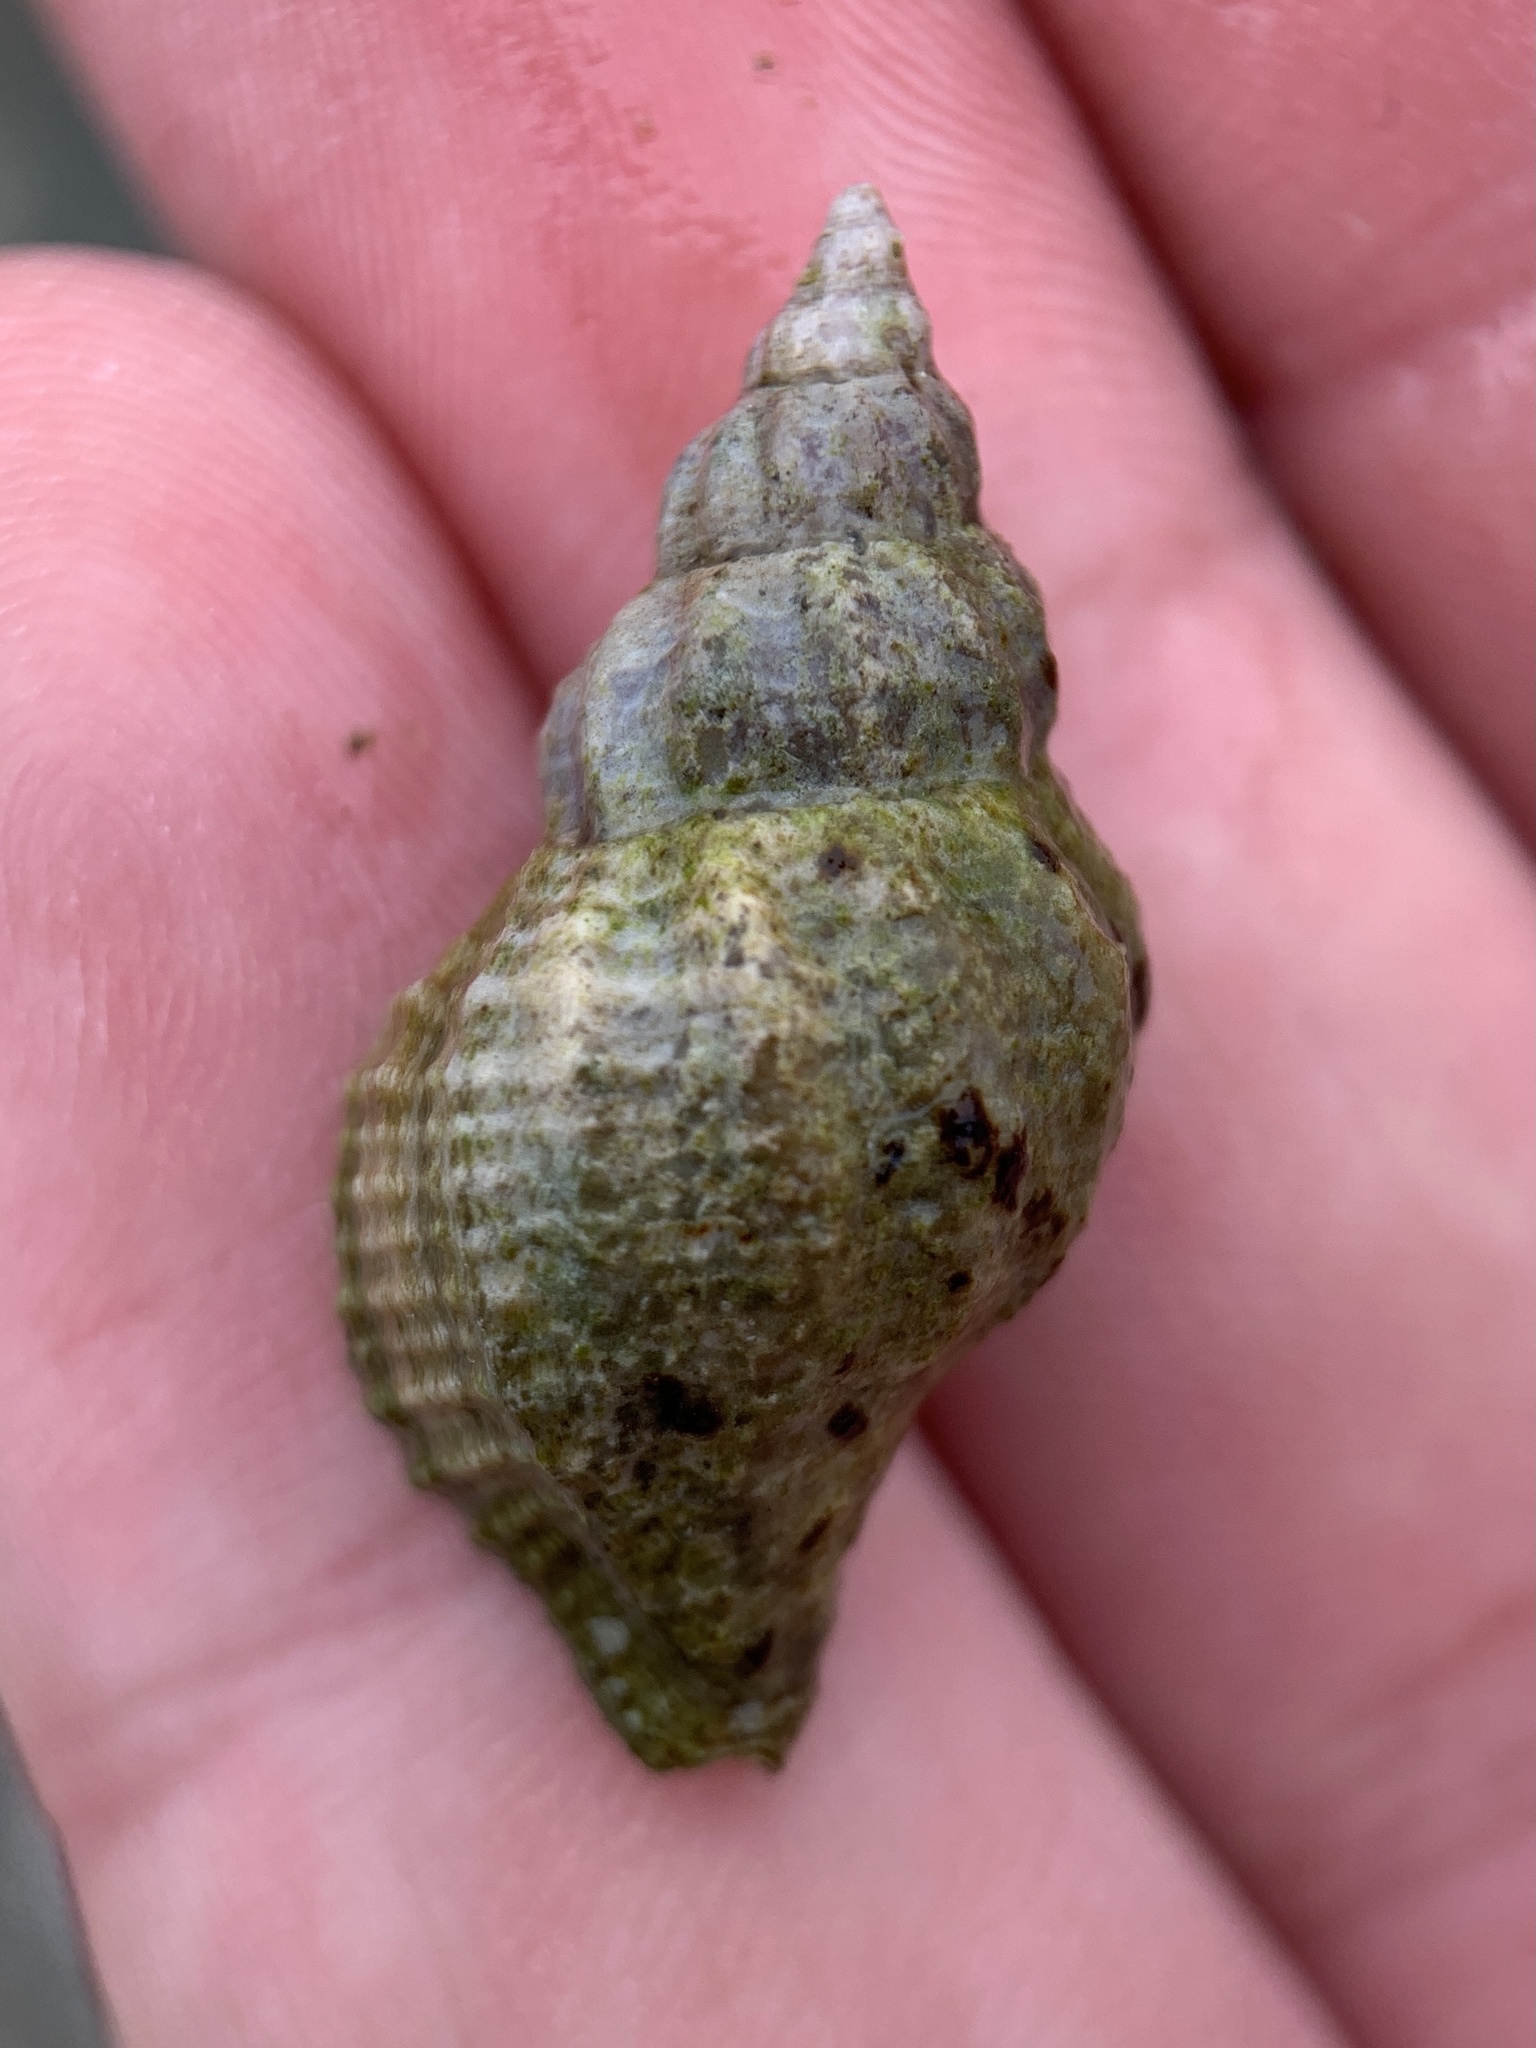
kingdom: Animalia
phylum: Mollusca
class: Gastropoda
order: Neogastropoda
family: Muricidae
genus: Urosalpinx
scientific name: Urosalpinx cinerea
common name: American sting winkle
